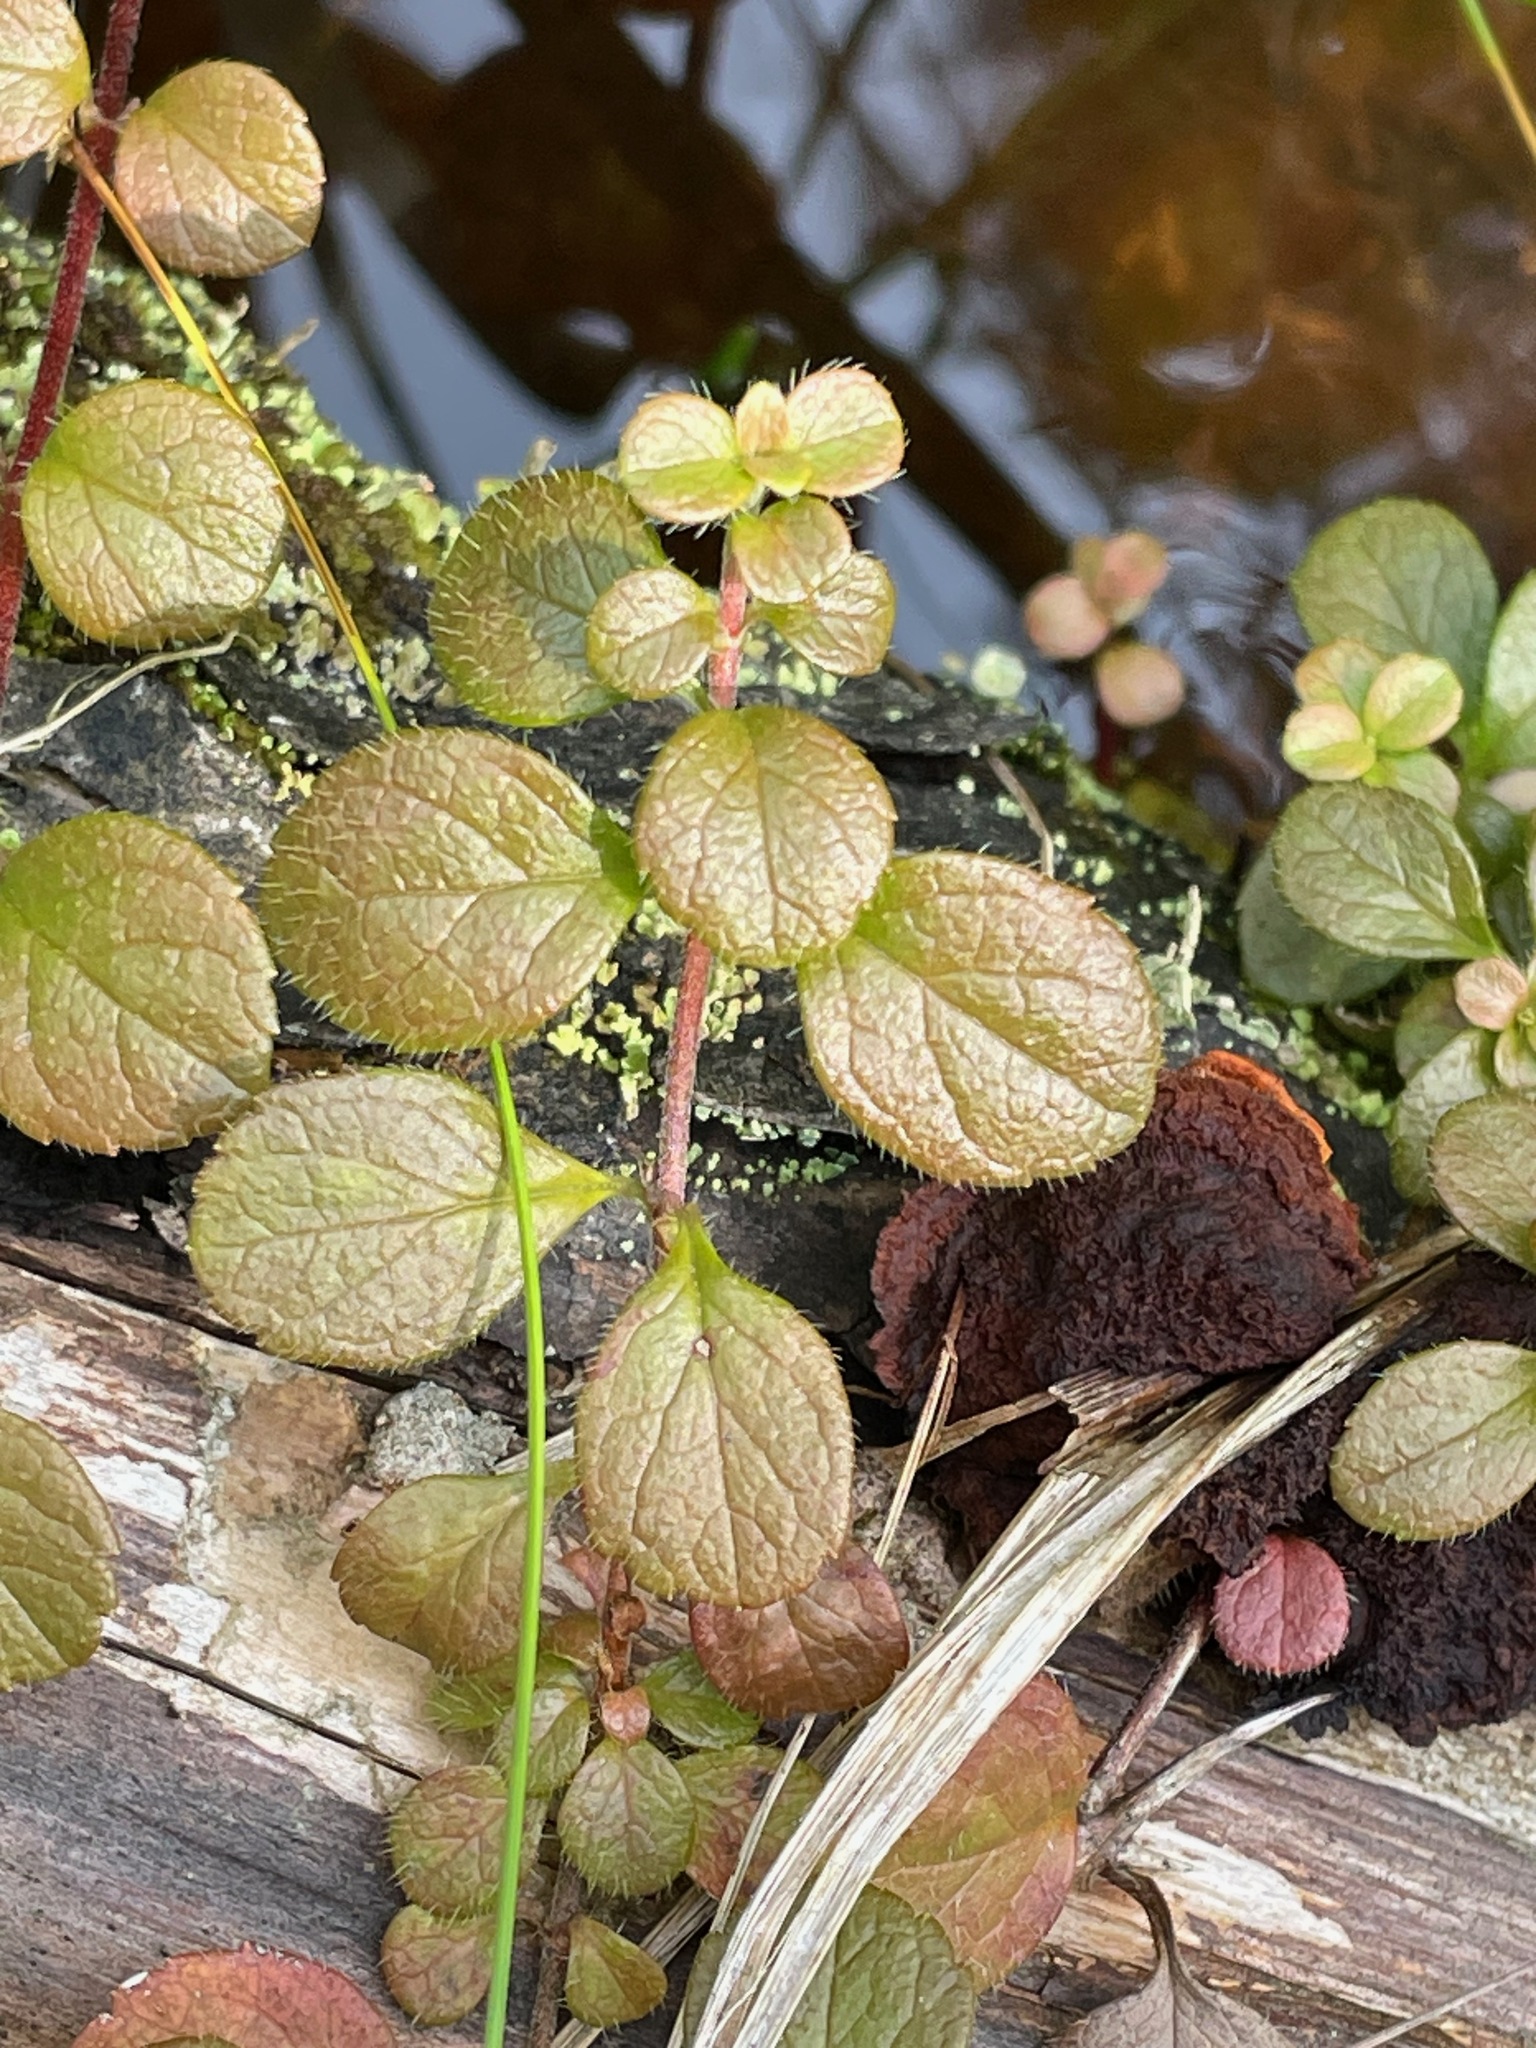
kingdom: Plantae
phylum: Tracheophyta
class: Magnoliopsida
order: Dipsacales
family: Caprifoliaceae
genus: Linnaea
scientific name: Linnaea borealis
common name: Twinflower
